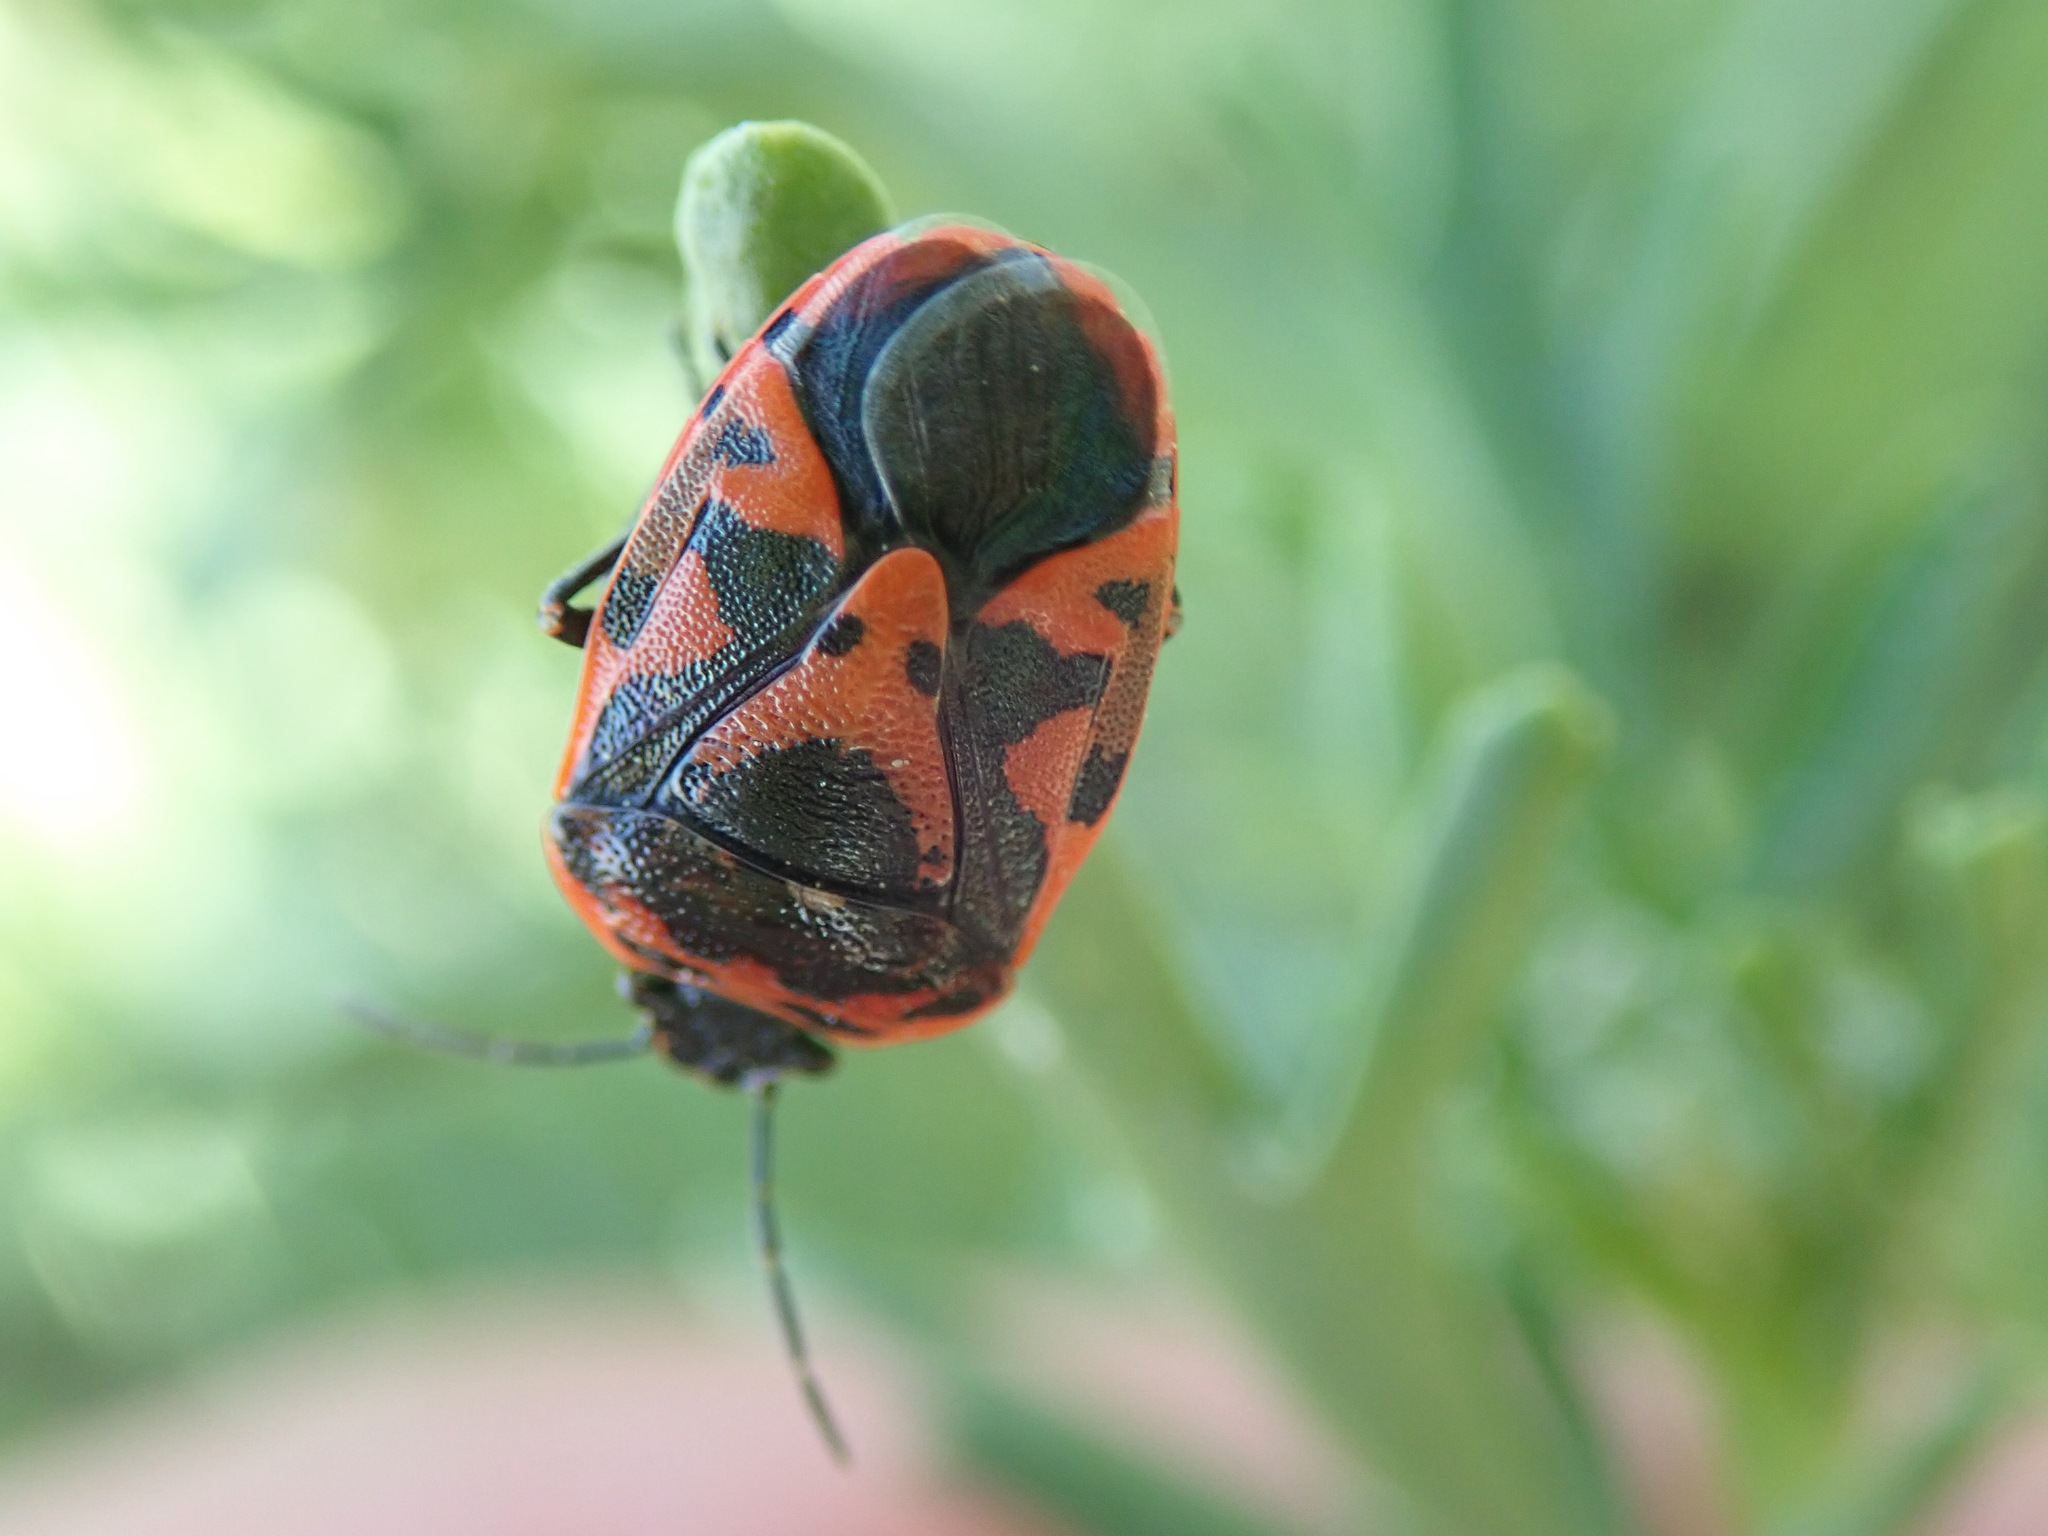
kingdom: Animalia
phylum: Arthropoda
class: Insecta
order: Hemiptera
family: Pentatomidae
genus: Eurydema
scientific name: Eurydema ornata
